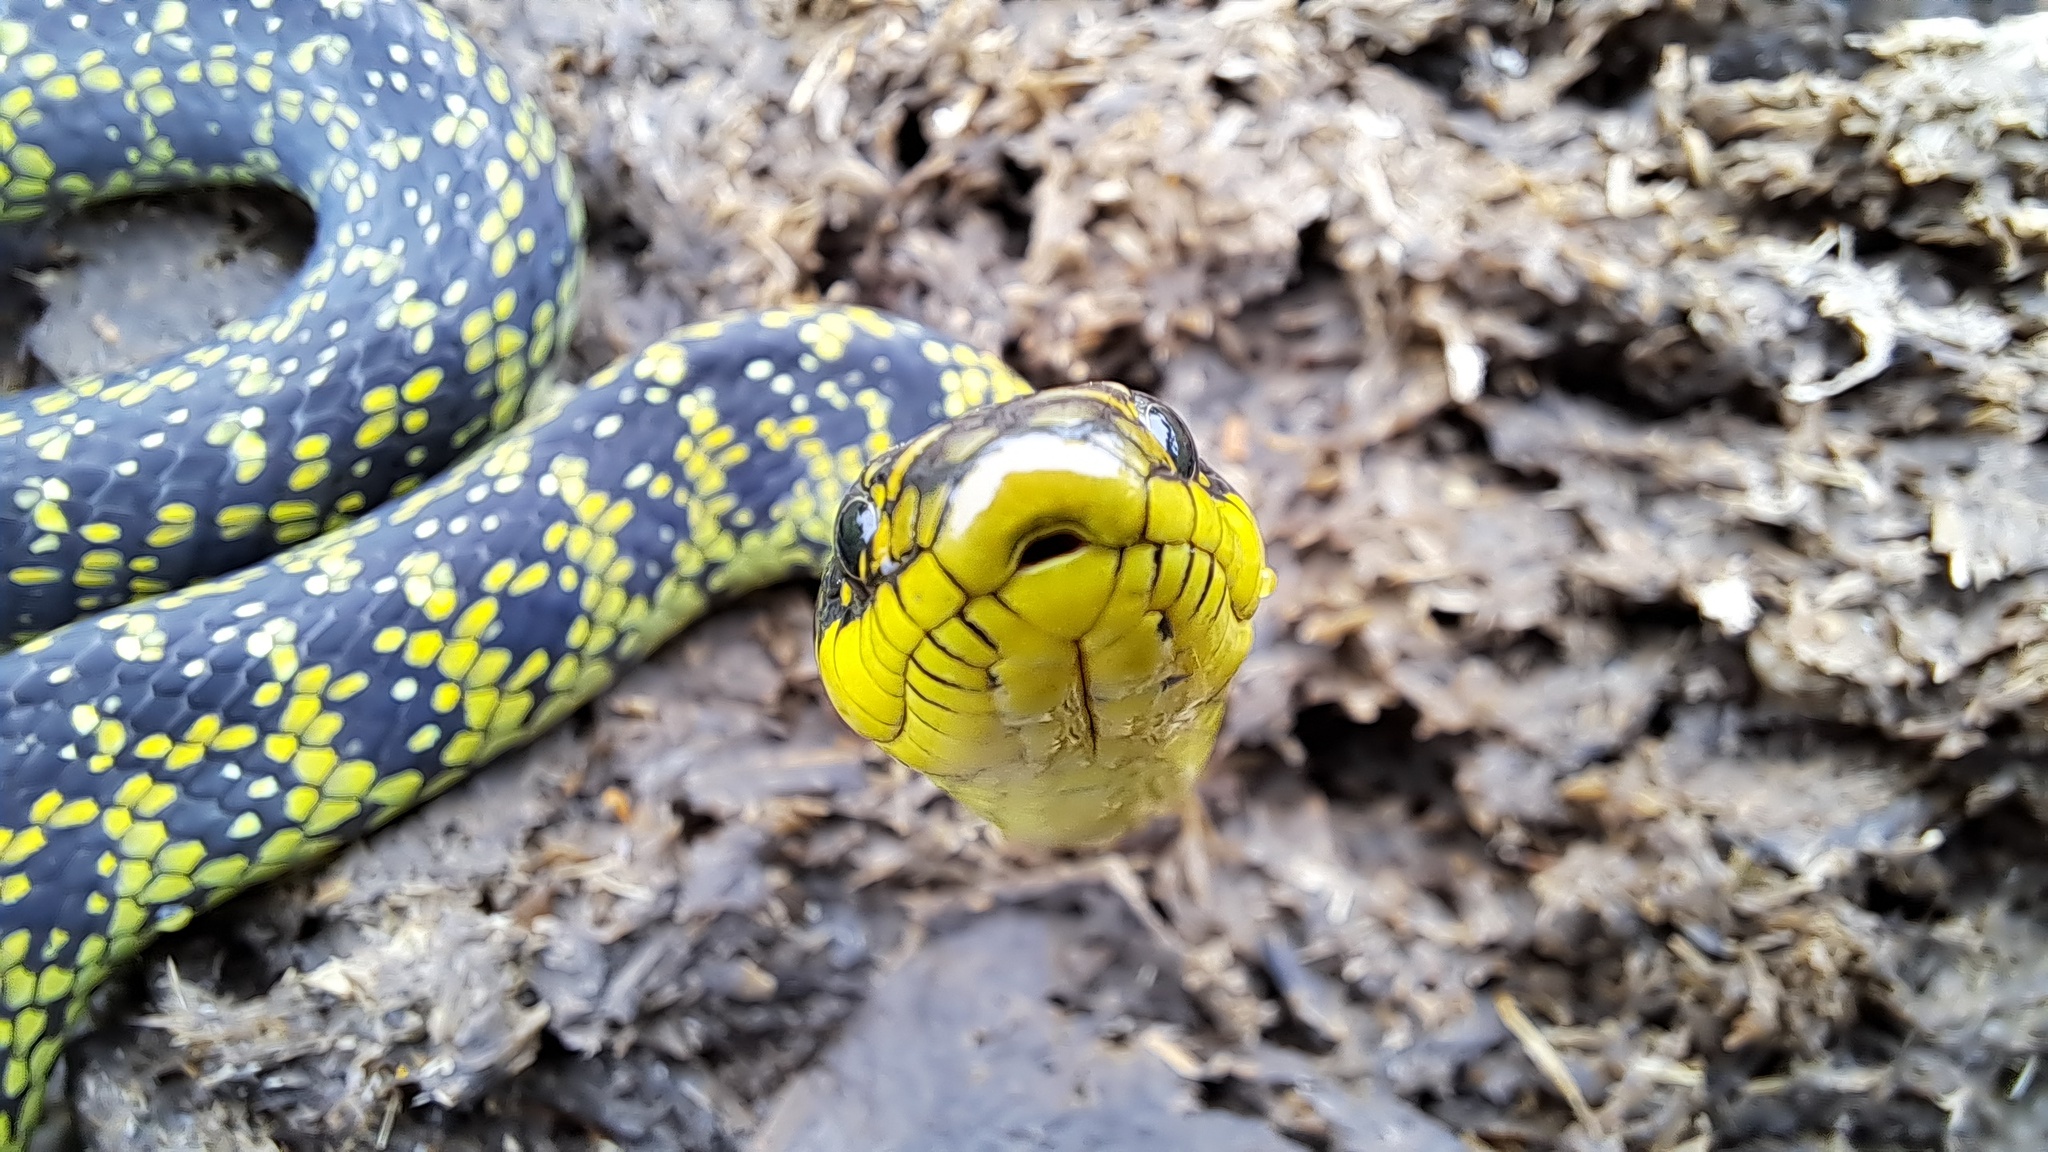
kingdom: Animalia
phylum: Chordata
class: Squamata
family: Colubridae
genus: Erythrolamprus
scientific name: Erythrolamprus poecilogyrus
